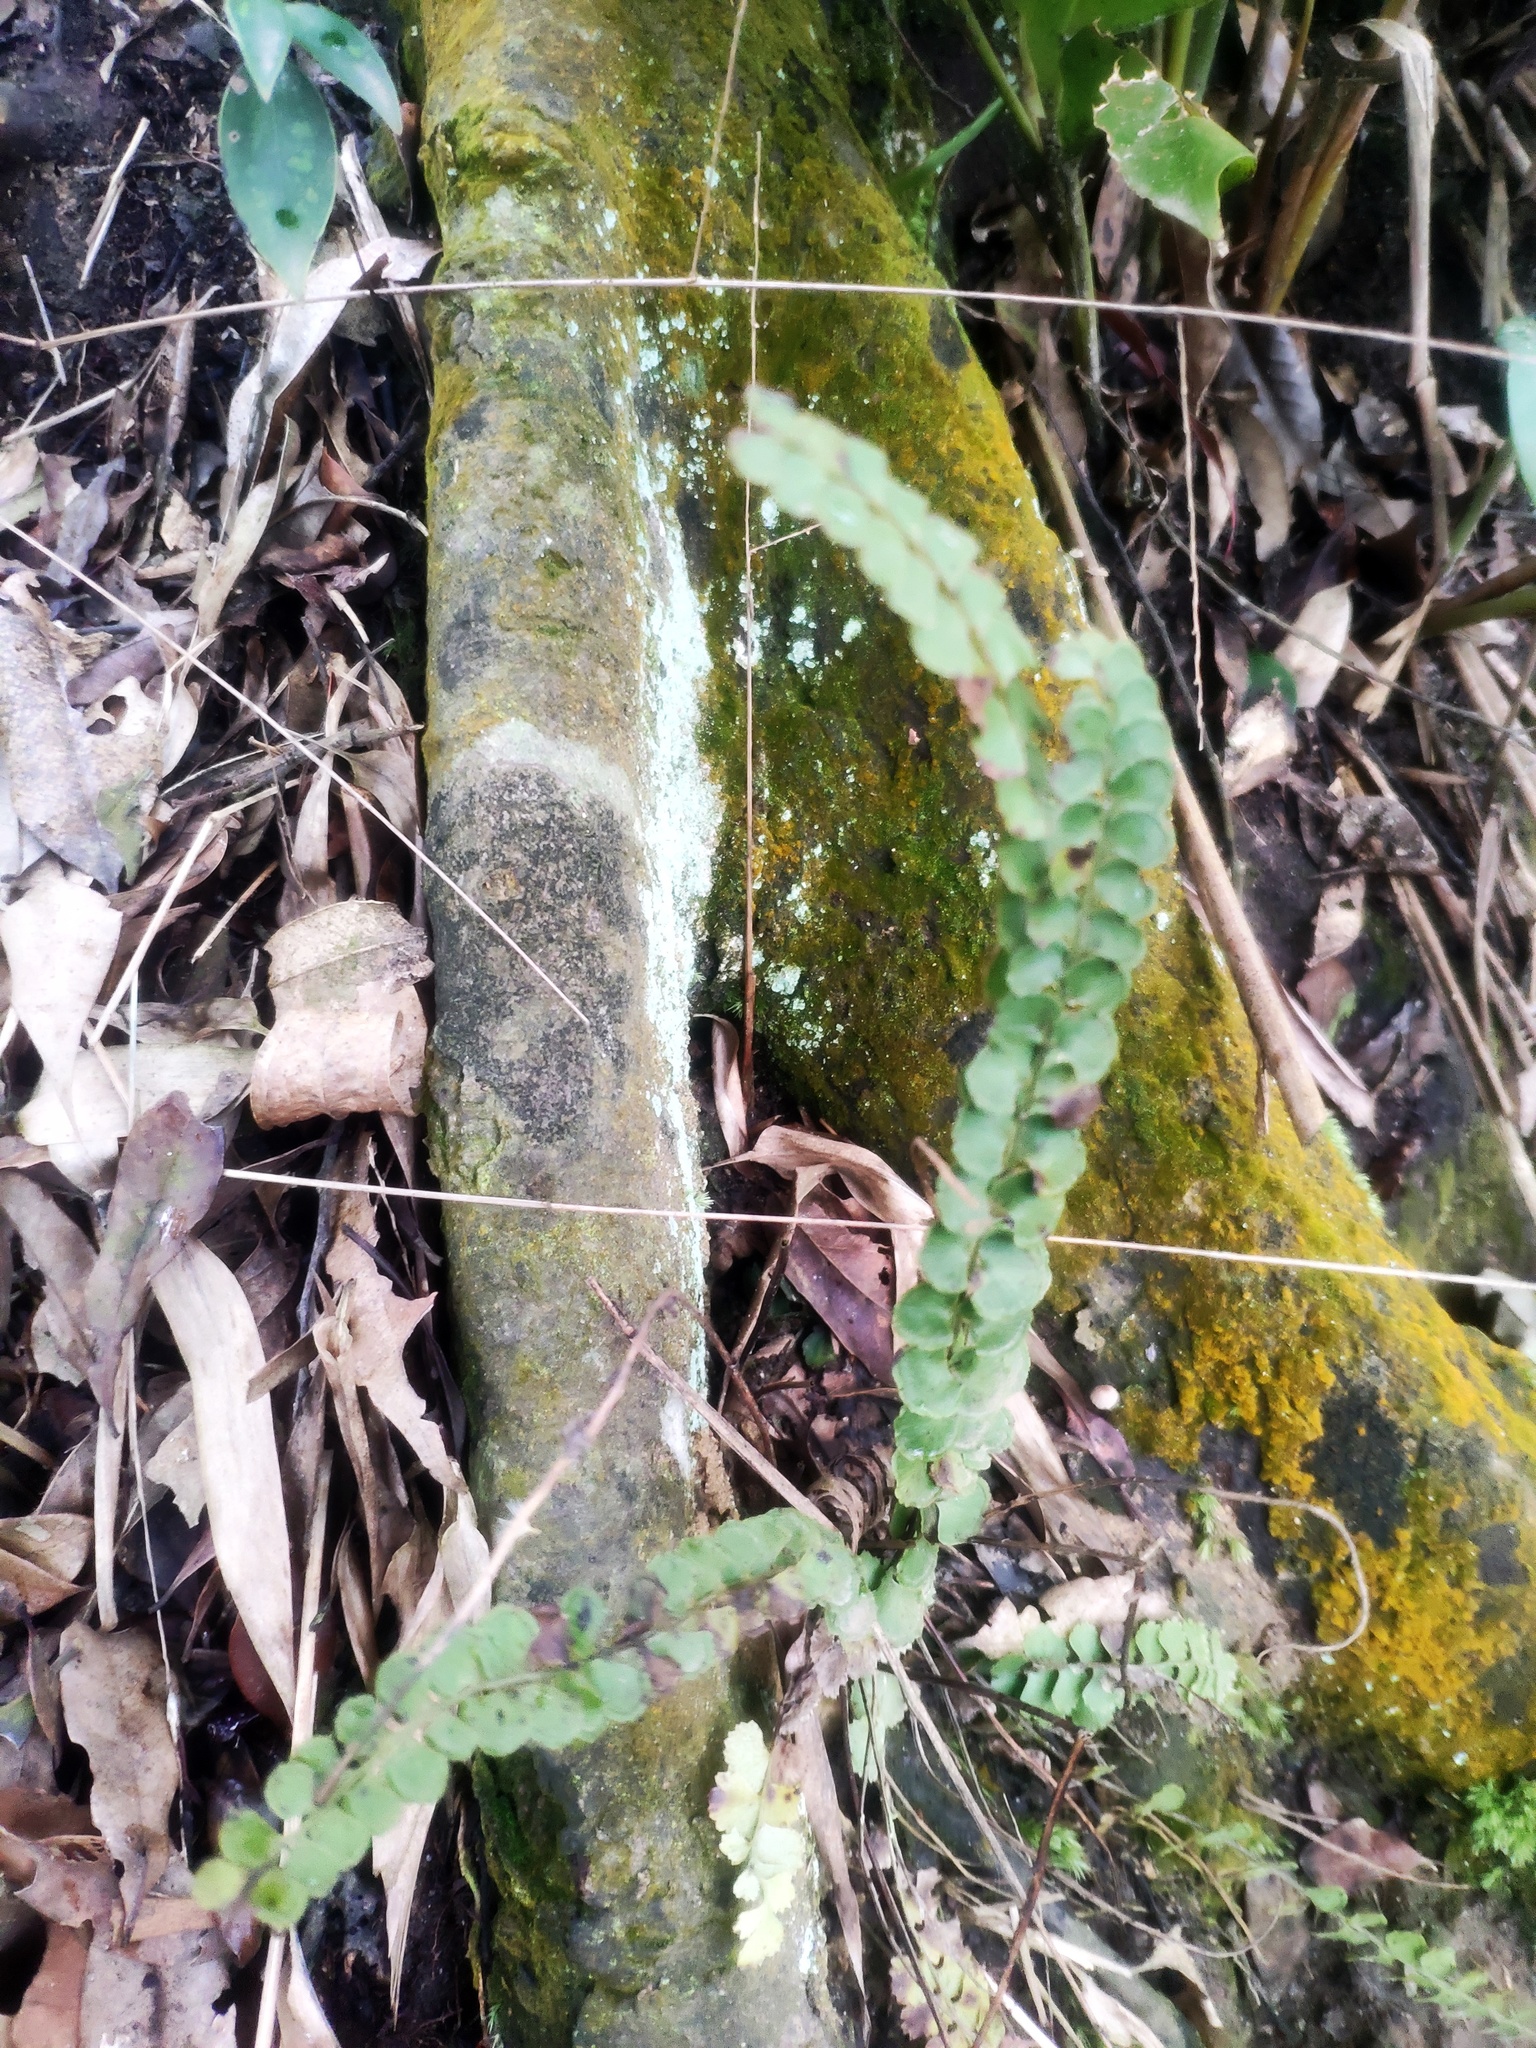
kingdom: Plantae
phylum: Tracheophyta
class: Polypodiopsida
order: Polypodiales
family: Lindsaeaceae
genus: Lindsaea
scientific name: Lindsaea orbiculata
